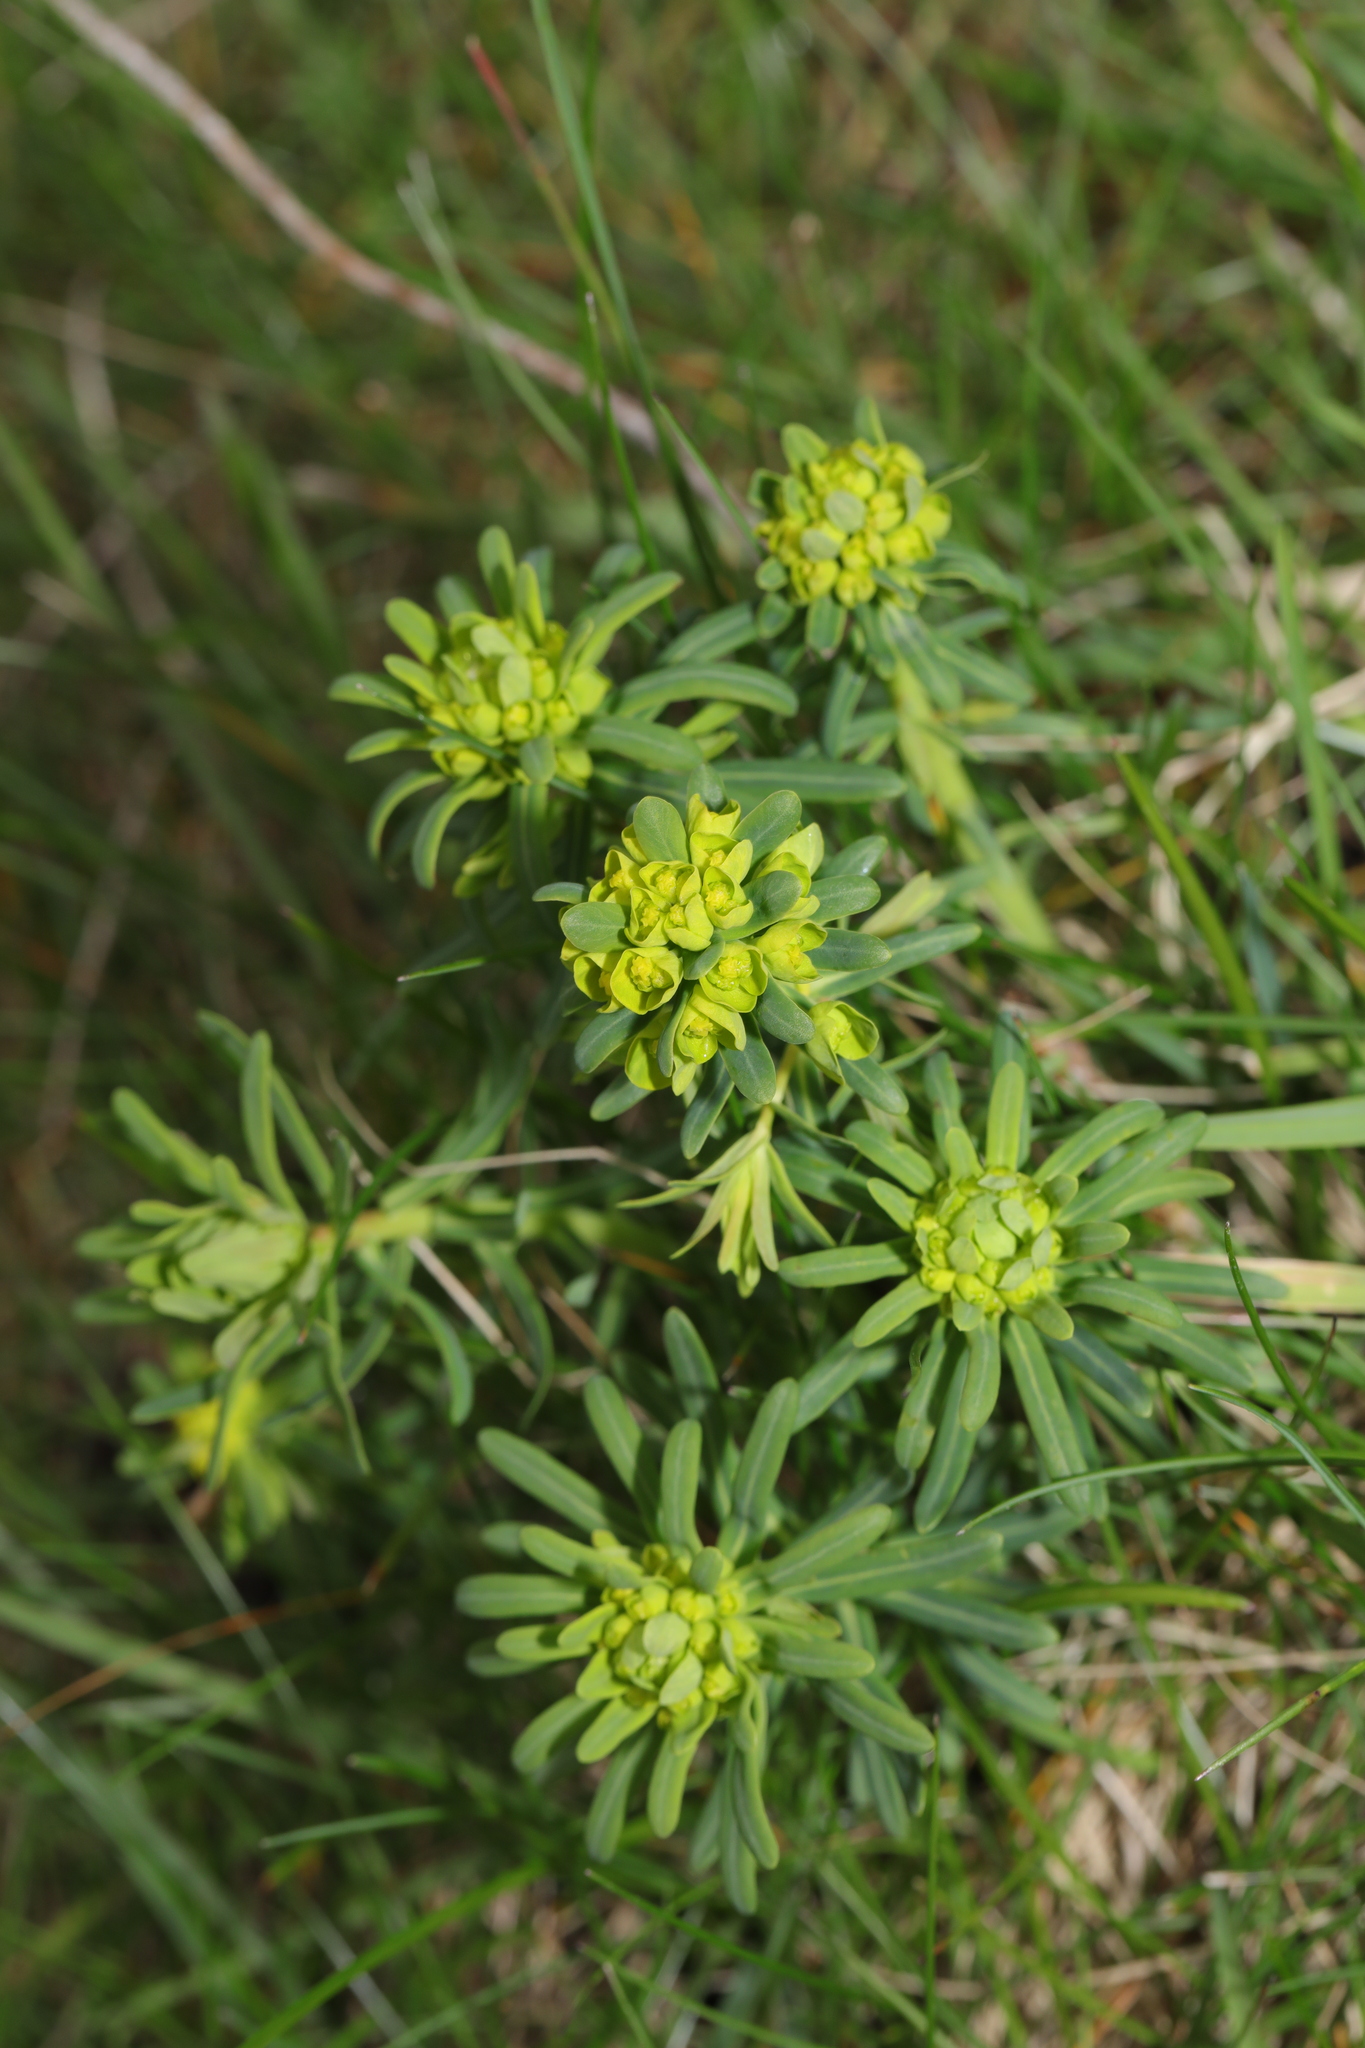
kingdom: Plantae
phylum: Tracheophyta
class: Magnoliopsida
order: Malpighiales
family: Euphorbiaceae
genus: Euphorbia
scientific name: Euphorbia cyparissias
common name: Cypress spurge
